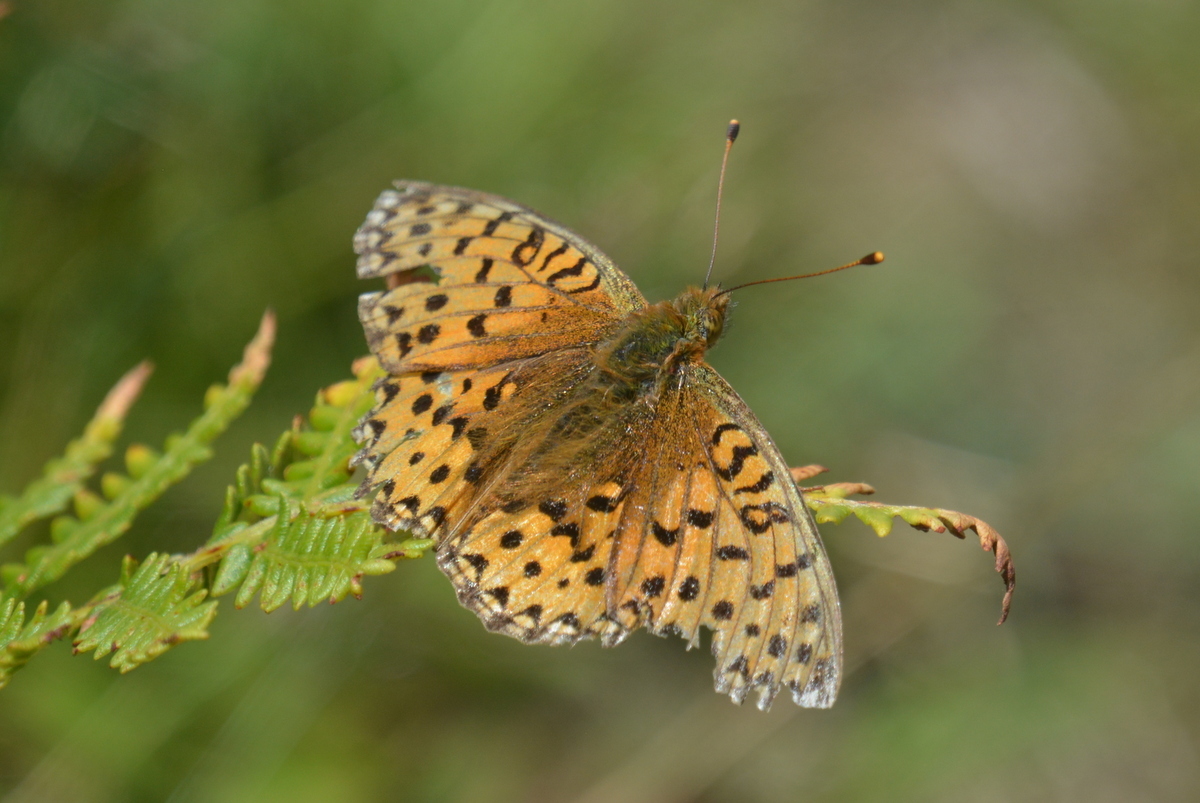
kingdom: Animalia
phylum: Arthropoda
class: Insecta
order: Lepidoptera
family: Nymphalidae
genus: Speyeria
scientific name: Speyeria aglaja
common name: Dark green fritillary
